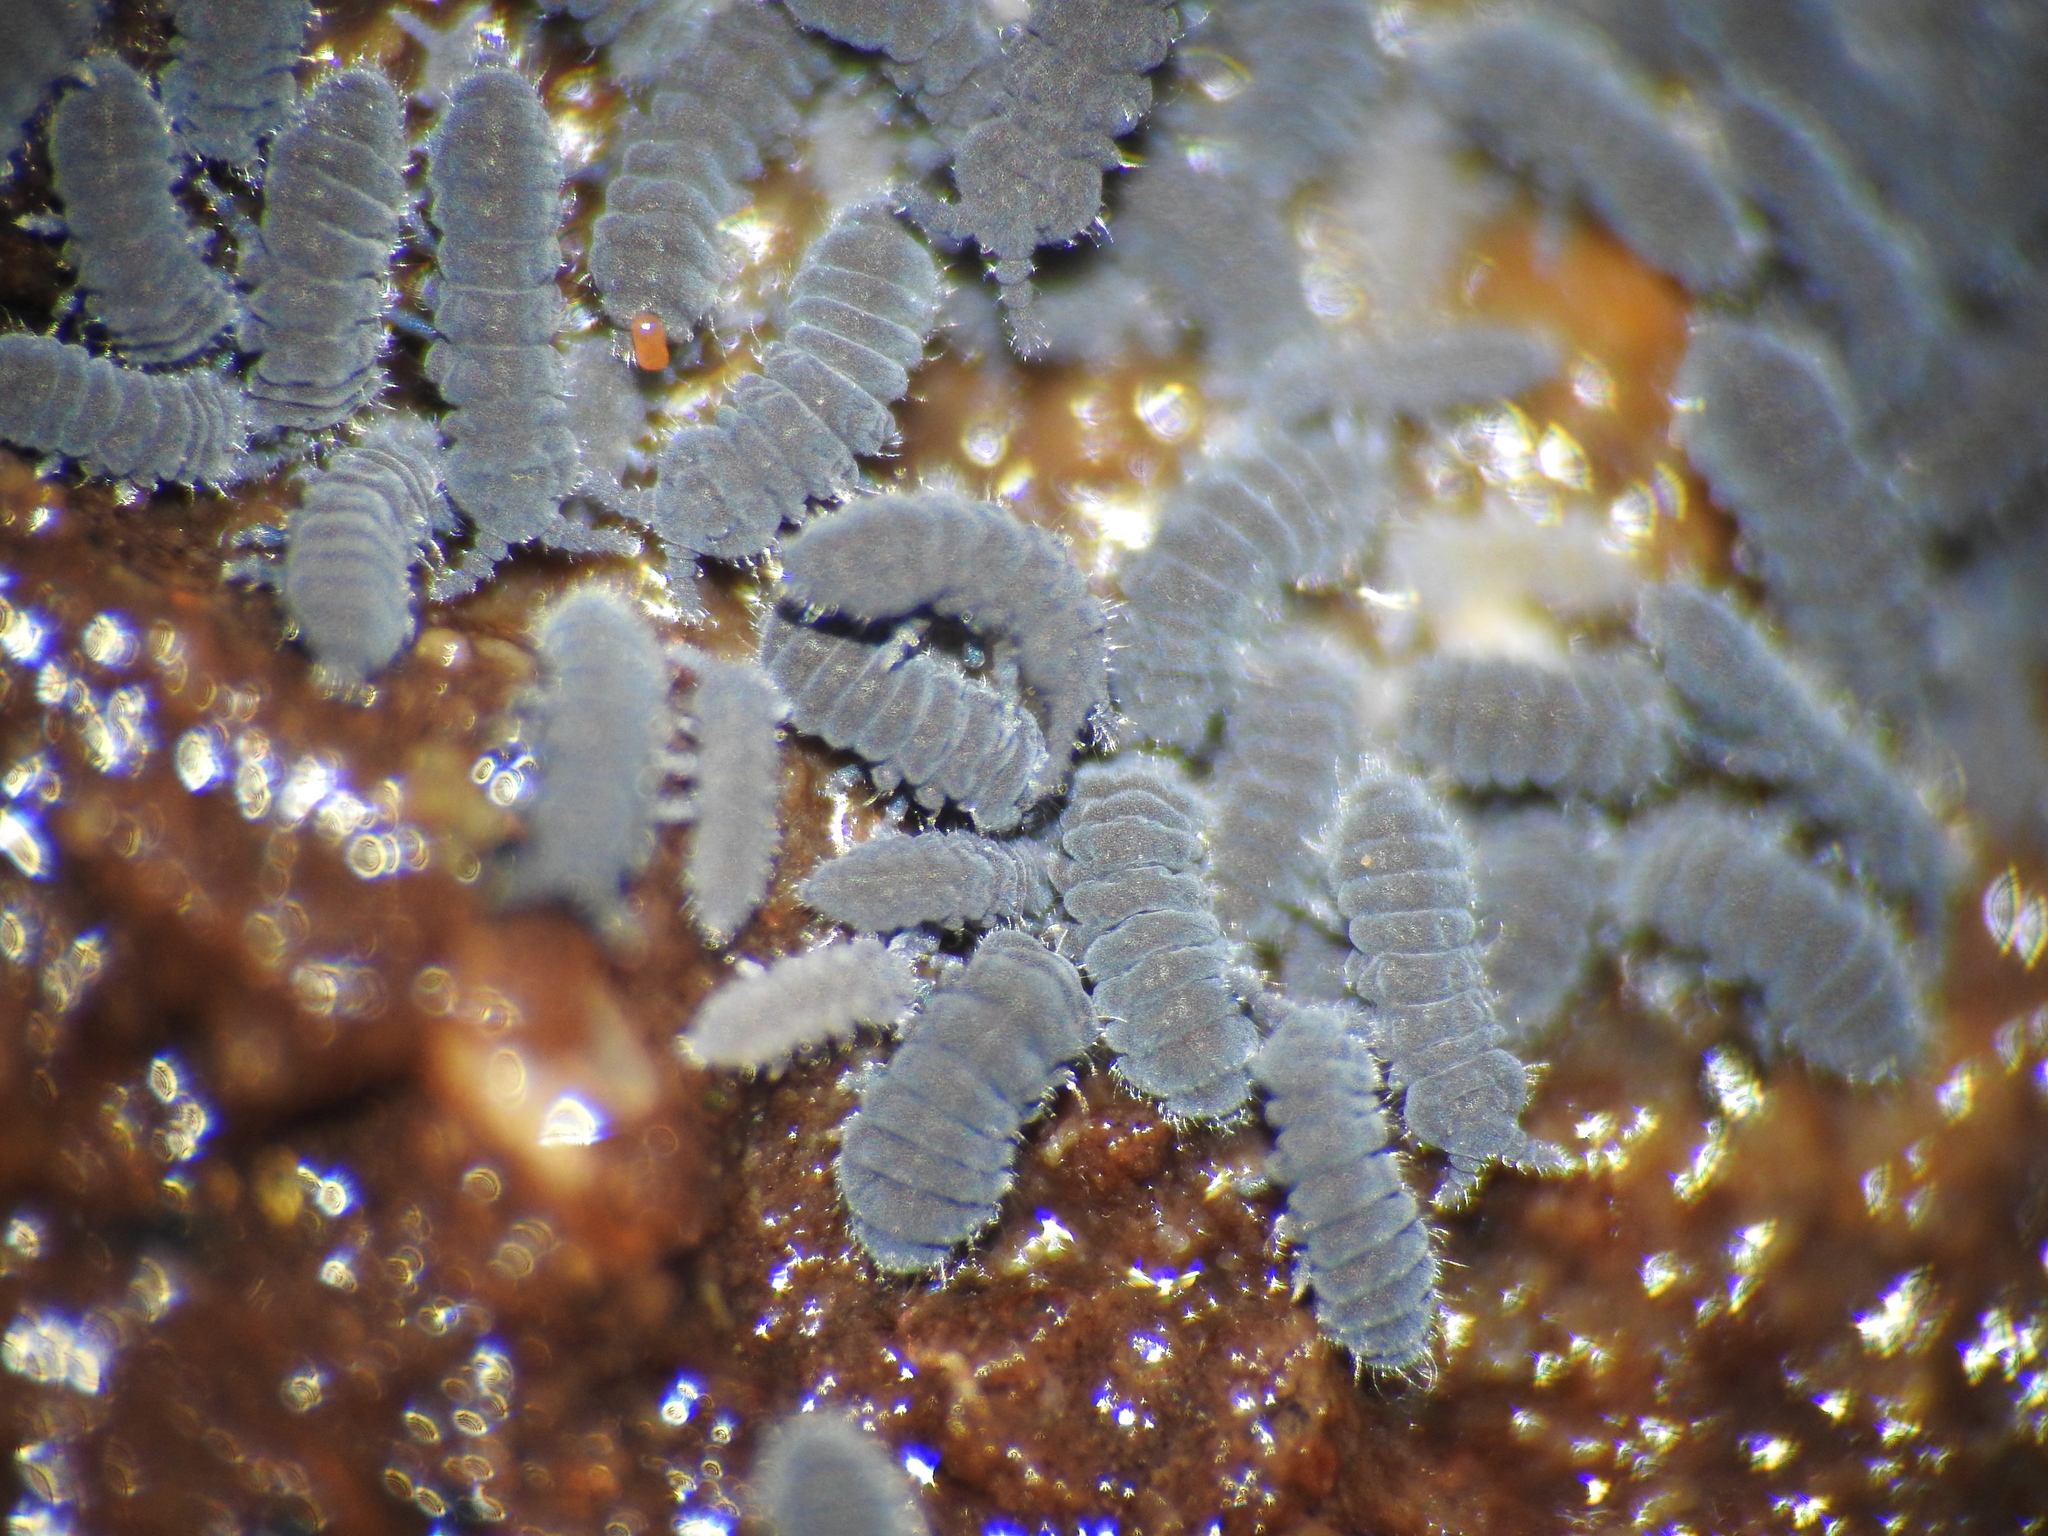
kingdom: Animalia
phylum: Arthropoda
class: Collembola
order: Poduromorpha
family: Neanuridae
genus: Anurida
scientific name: Anurida maritima
